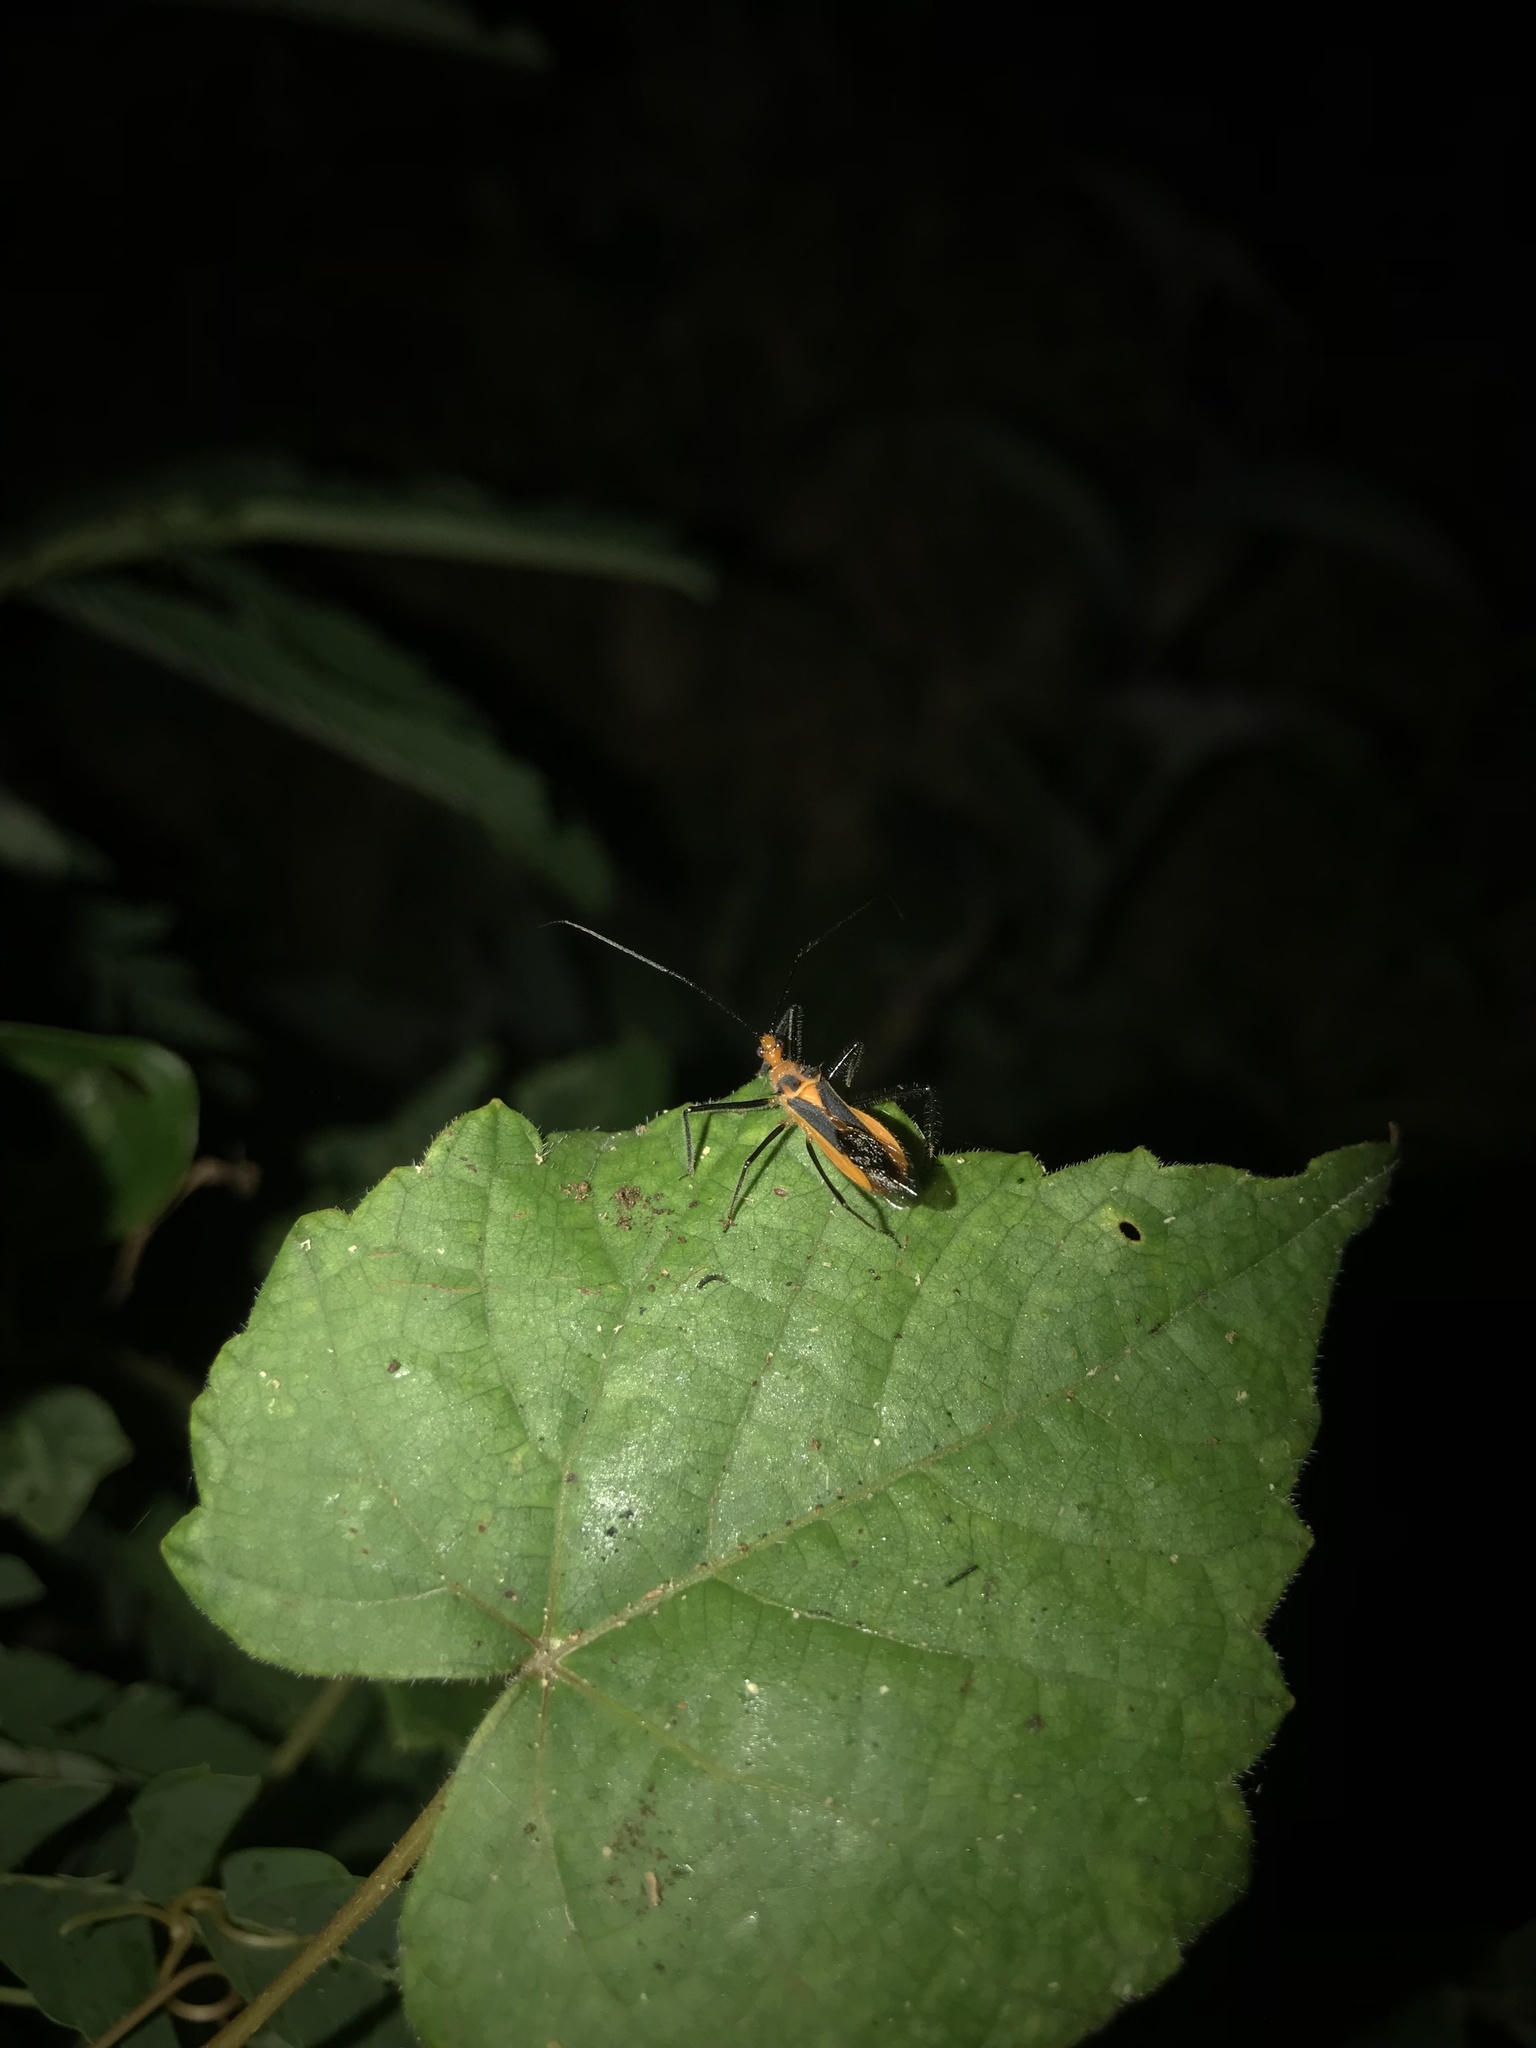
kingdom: Animalia
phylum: Arthropoda
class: Insecta
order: Hemiptera
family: Reduviidae
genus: Repipta
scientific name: Repipta taurus
